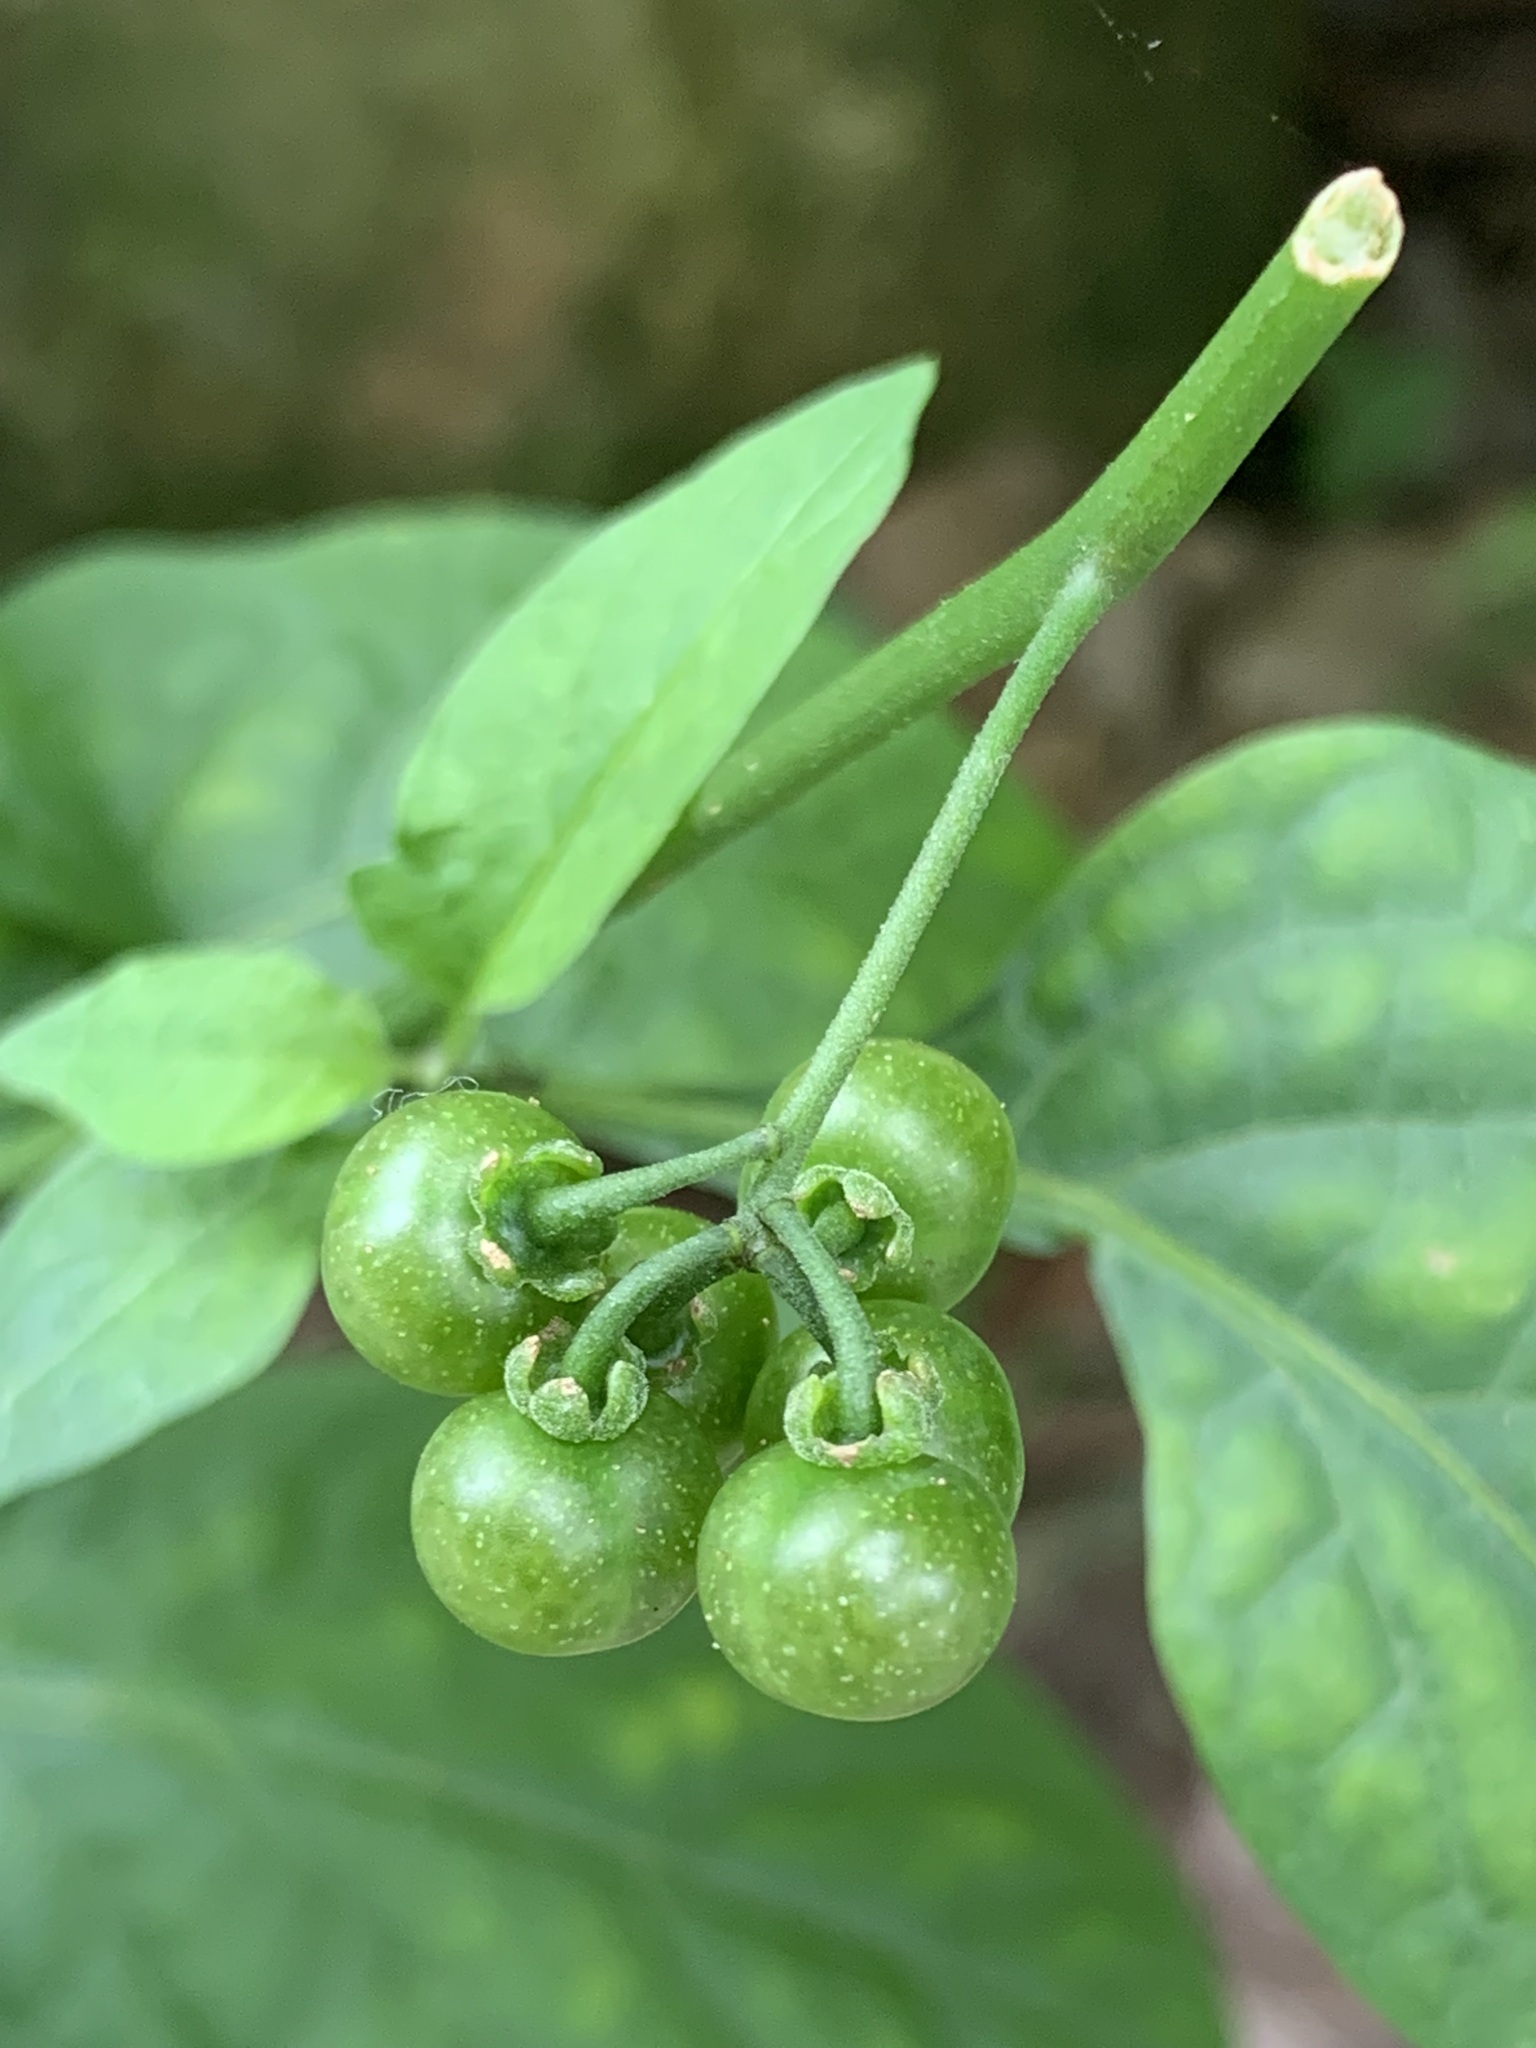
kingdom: Plantae
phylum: Tracheophyta
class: Magnoliopsida
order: Solanales
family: Solanaceae
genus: Solanum
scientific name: Solanum americanum
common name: American black nightshade
